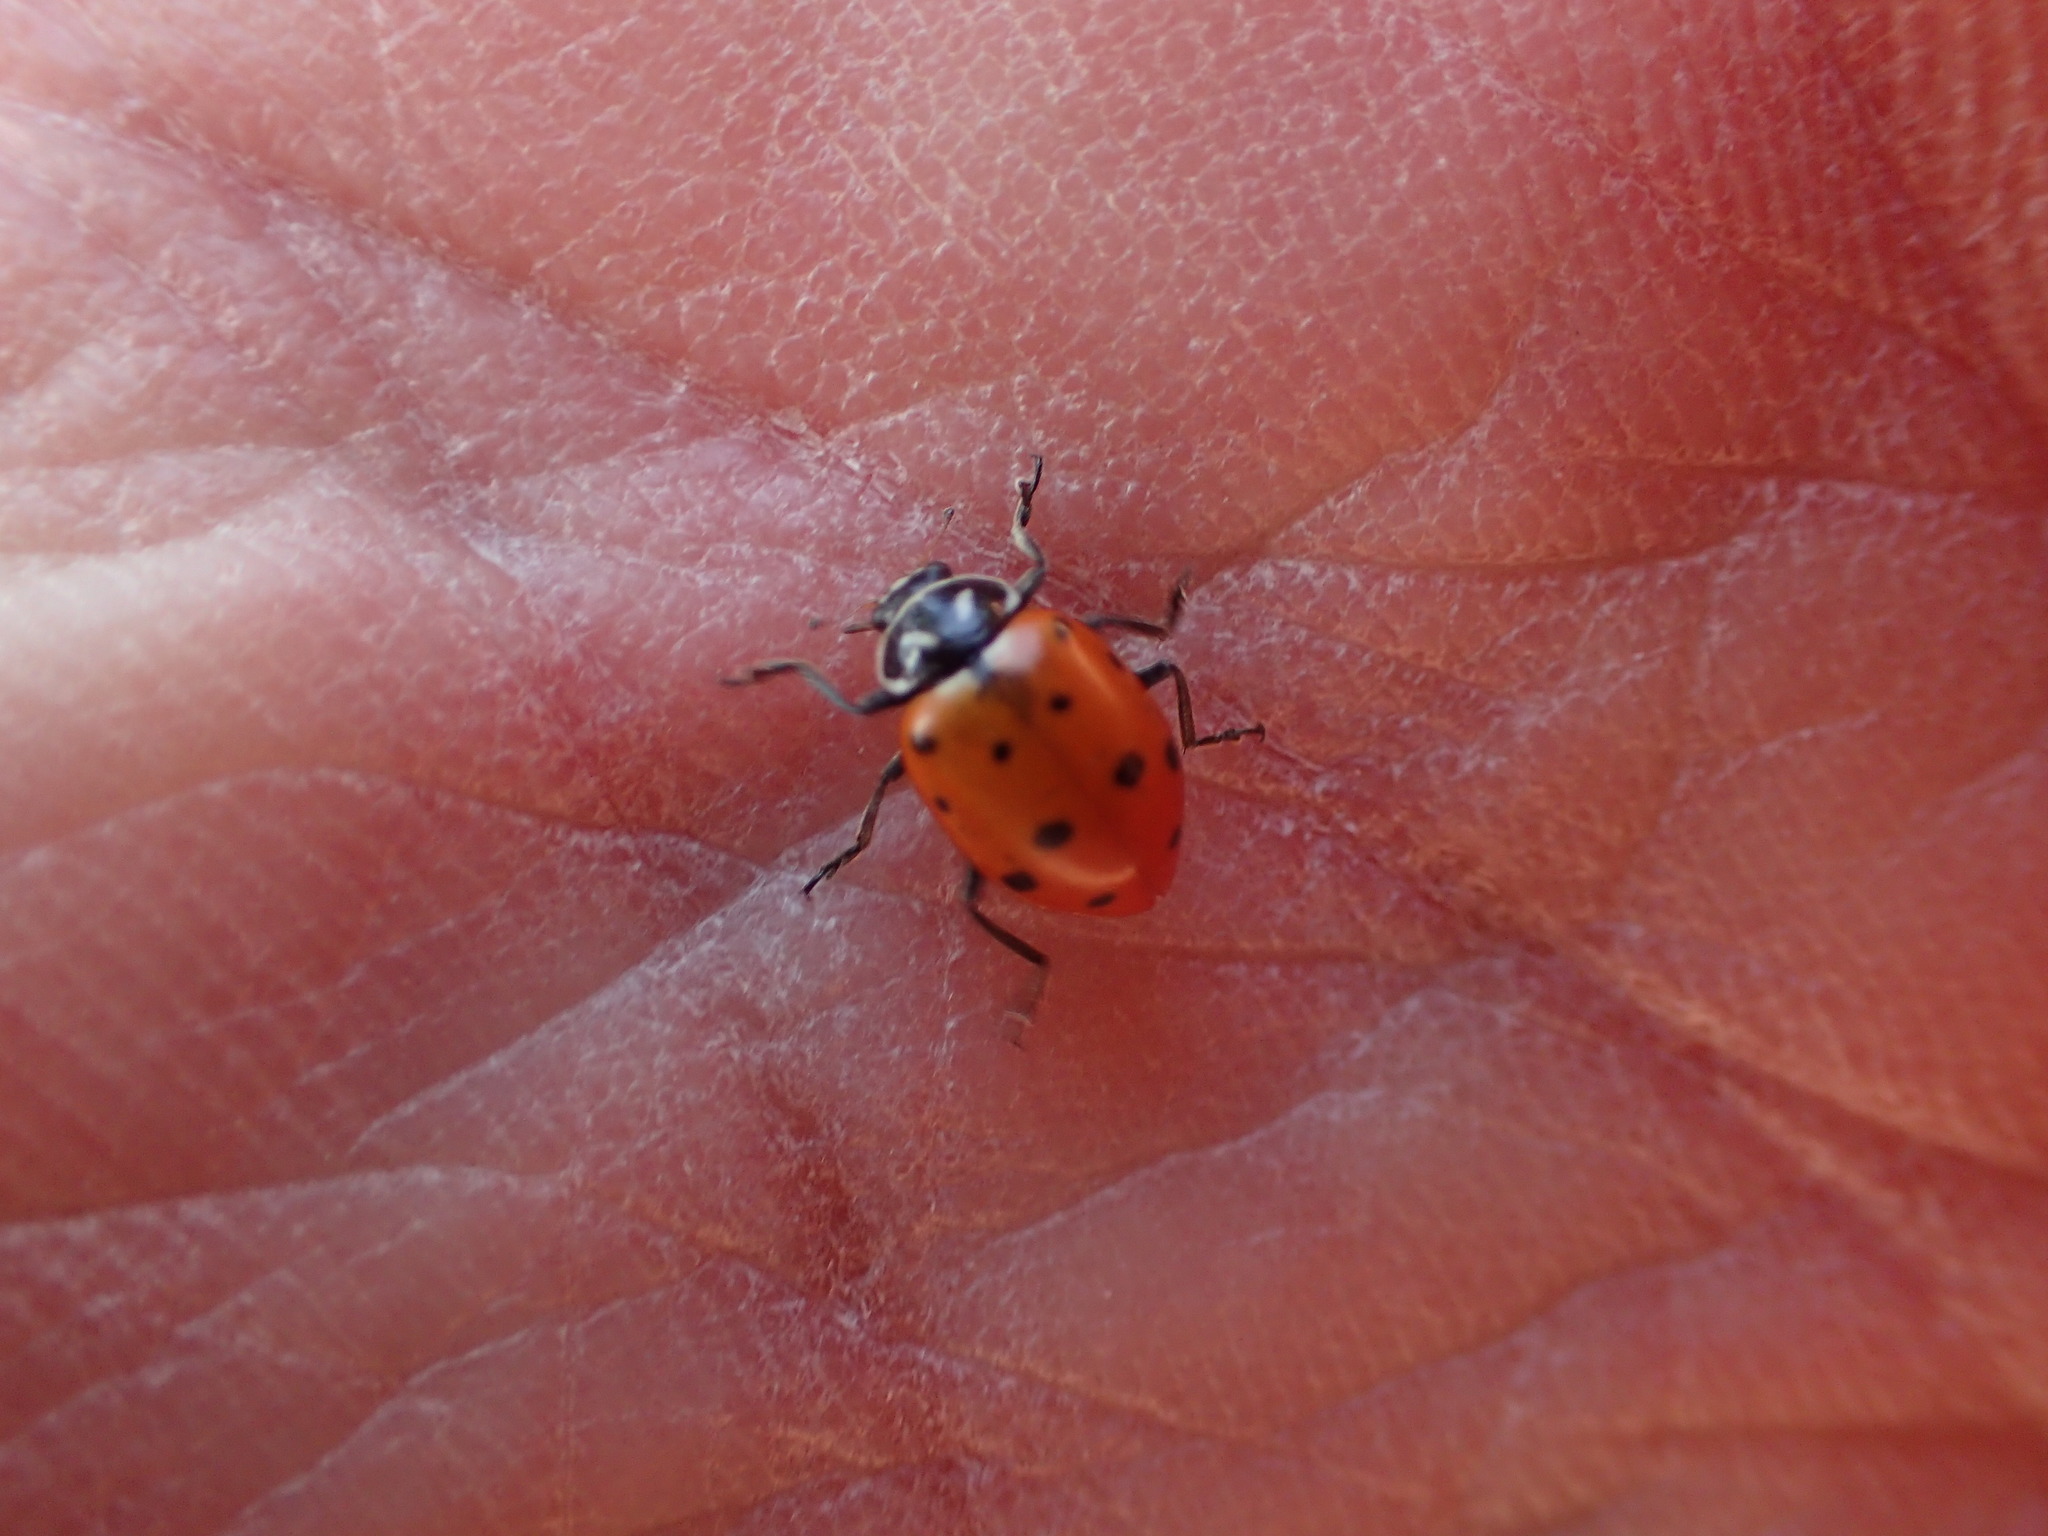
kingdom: Animalia
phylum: Arthropoda
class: Insecta
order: Coleoptera
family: Coccinellidae
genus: Hippodamia
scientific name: Hippodamia convergens
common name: Convergent lady beetle
